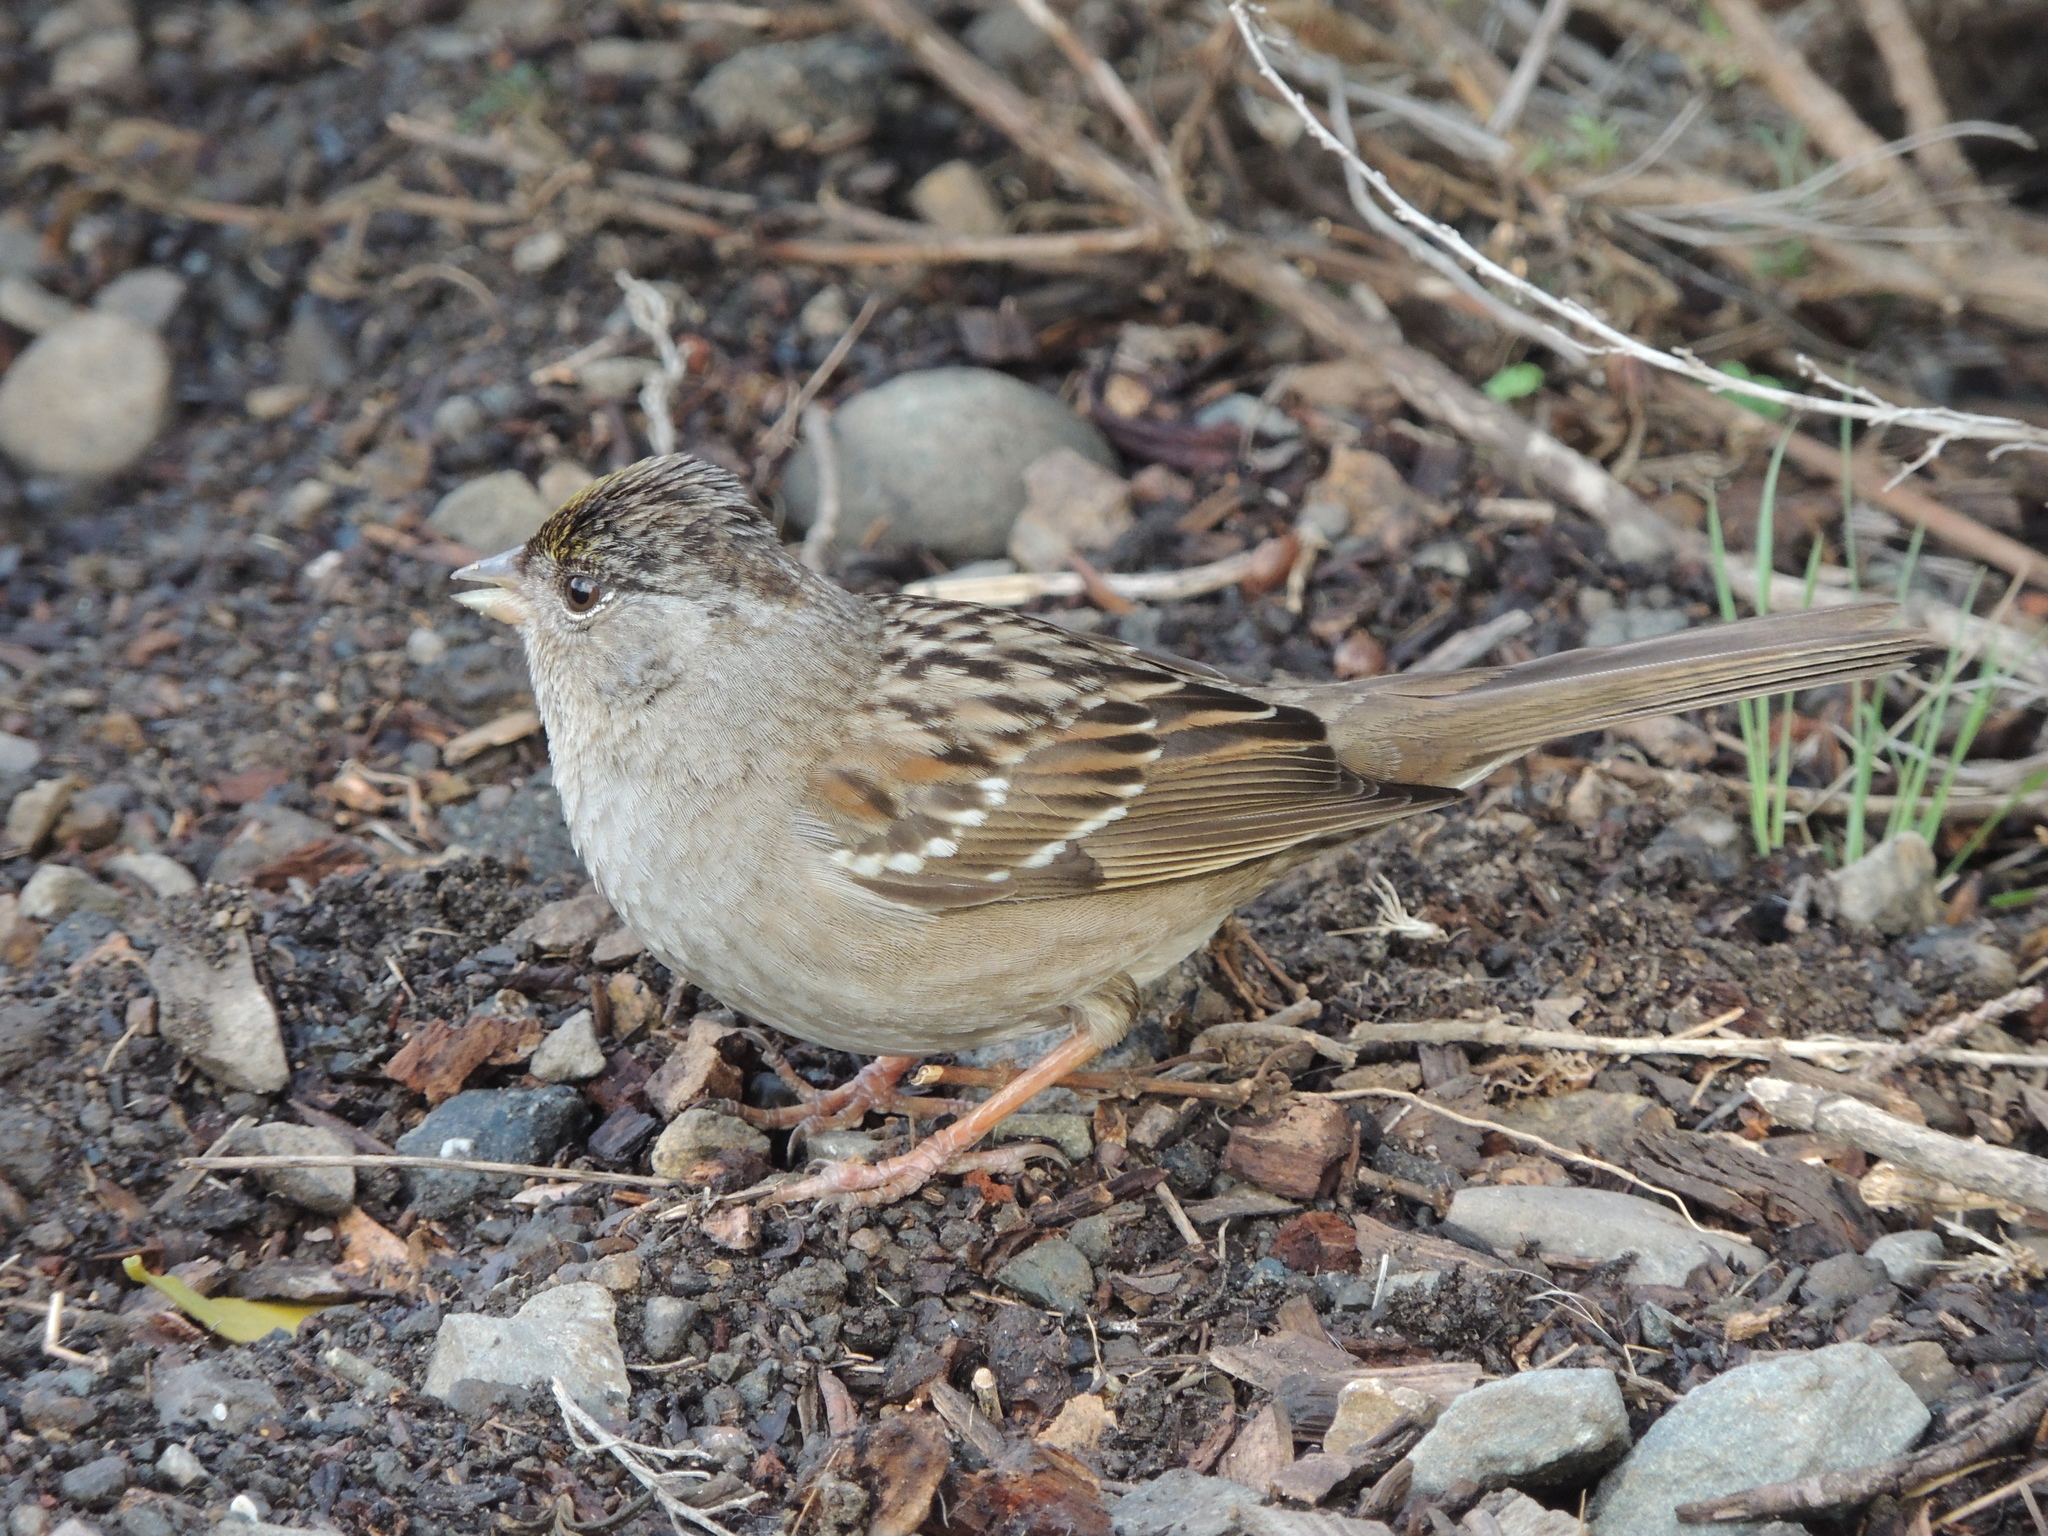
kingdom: Animalia
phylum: Chordata
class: Aves
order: Passeriformes
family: Passerellidae
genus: Zonotrichia
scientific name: Zonotrichia atricapilla
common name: Golden-crowned sparrow
